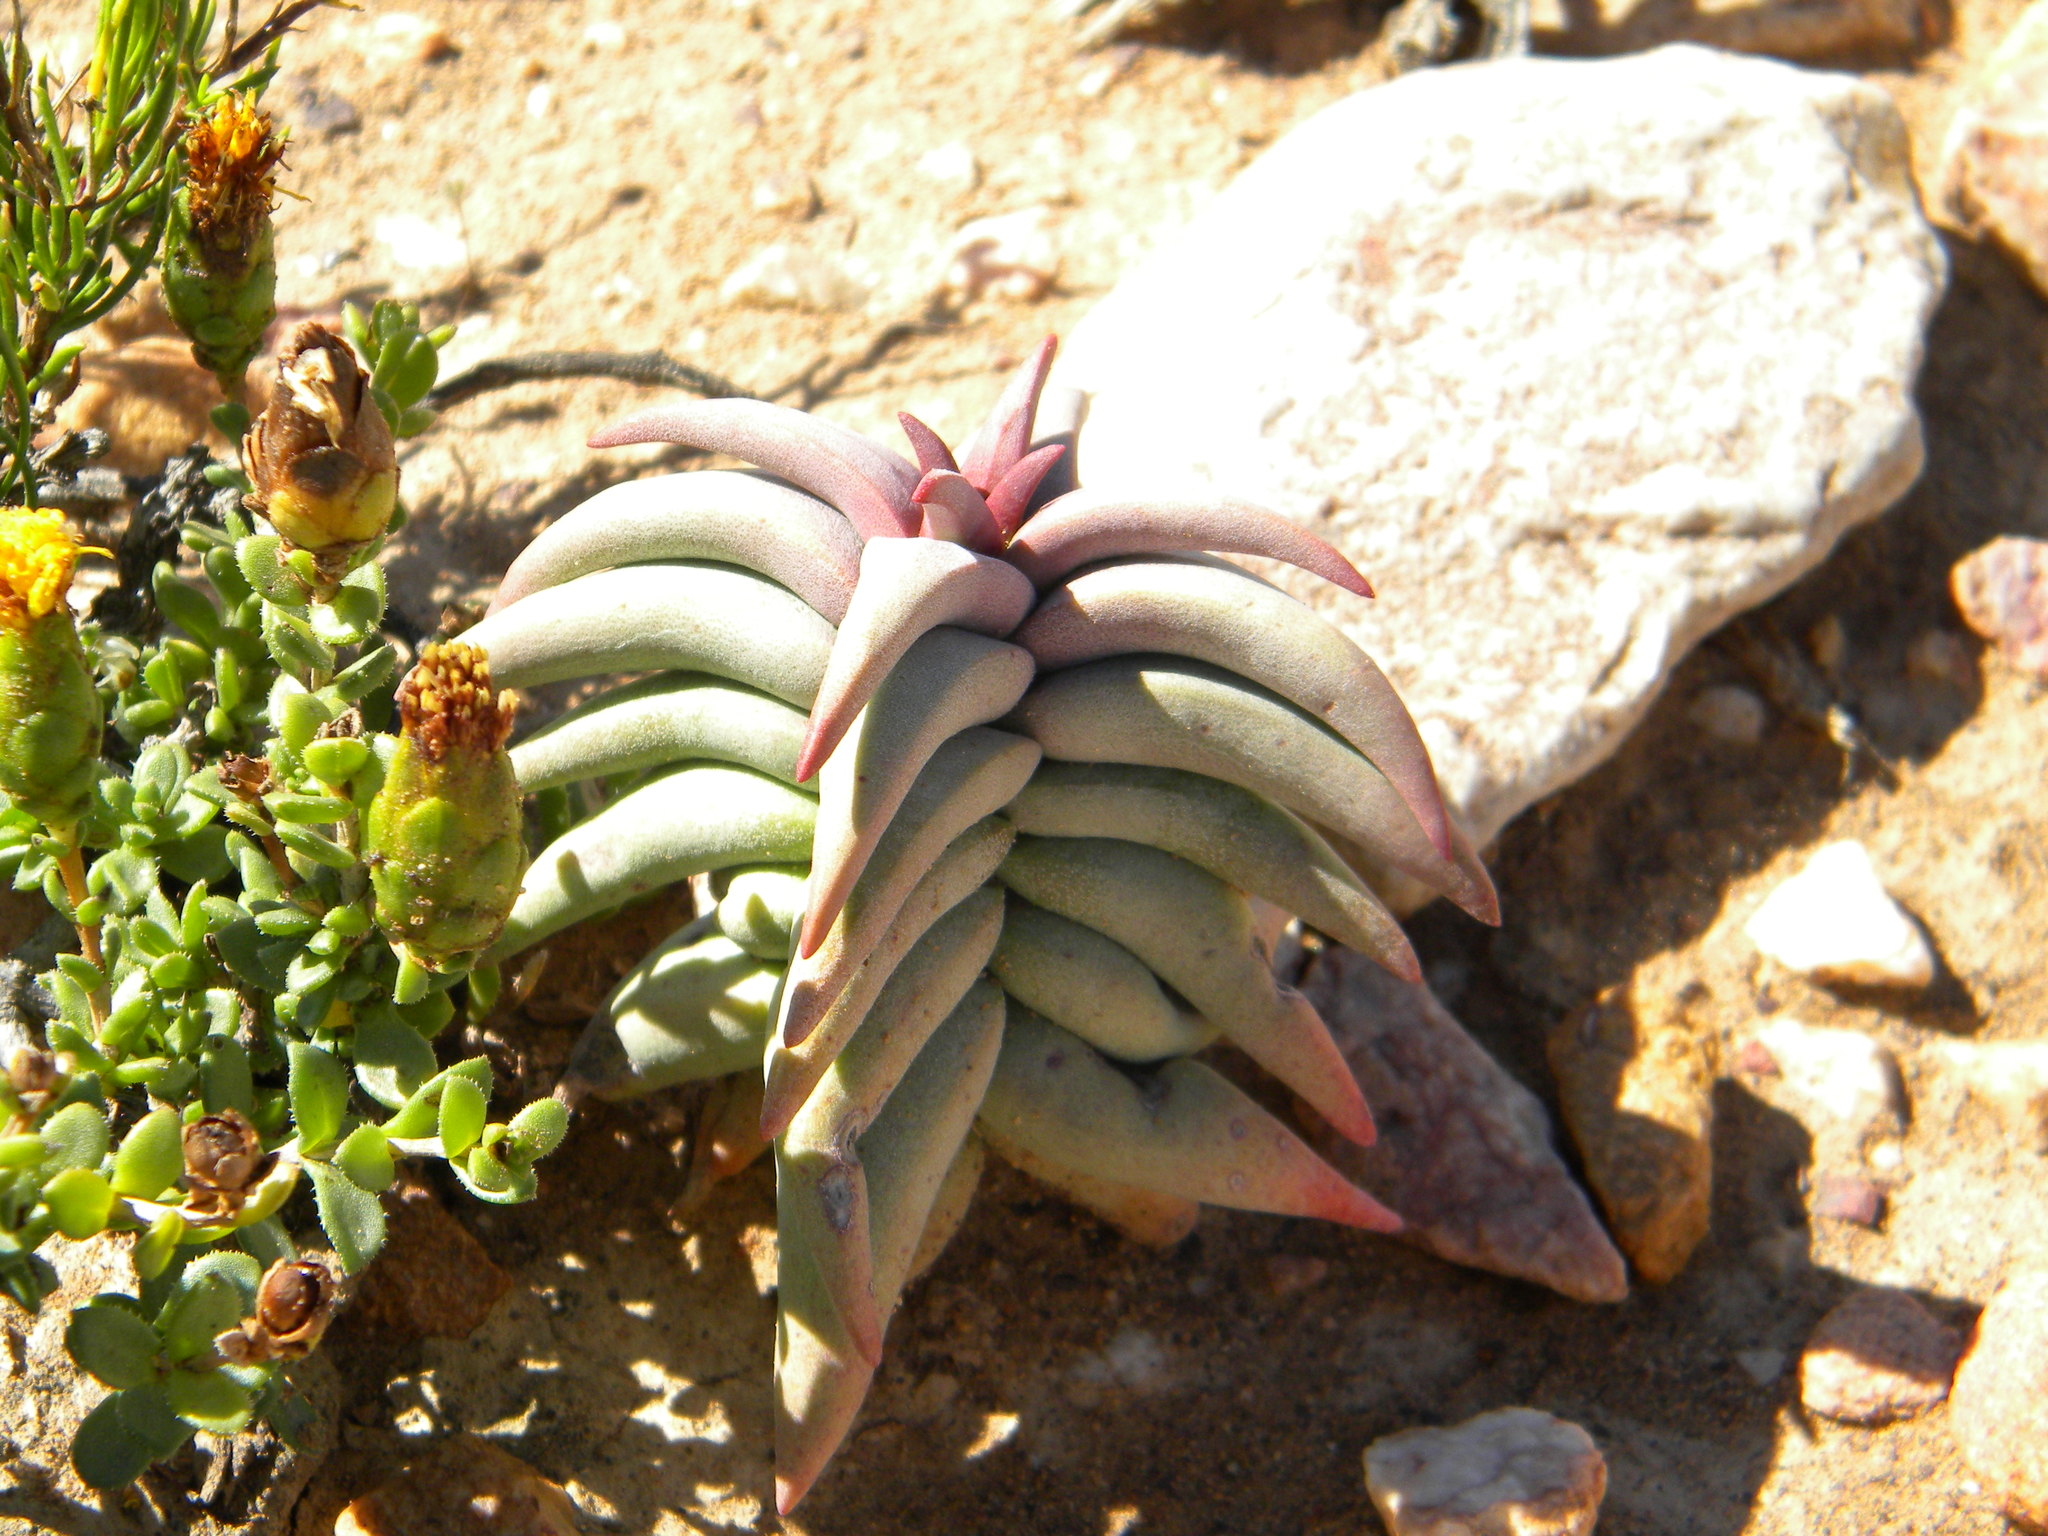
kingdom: Plantae
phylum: Tracheophyta
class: Magnoliopsida
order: Saxifragales
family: Crassulaceae
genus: Crassula
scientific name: Crassula congesta
